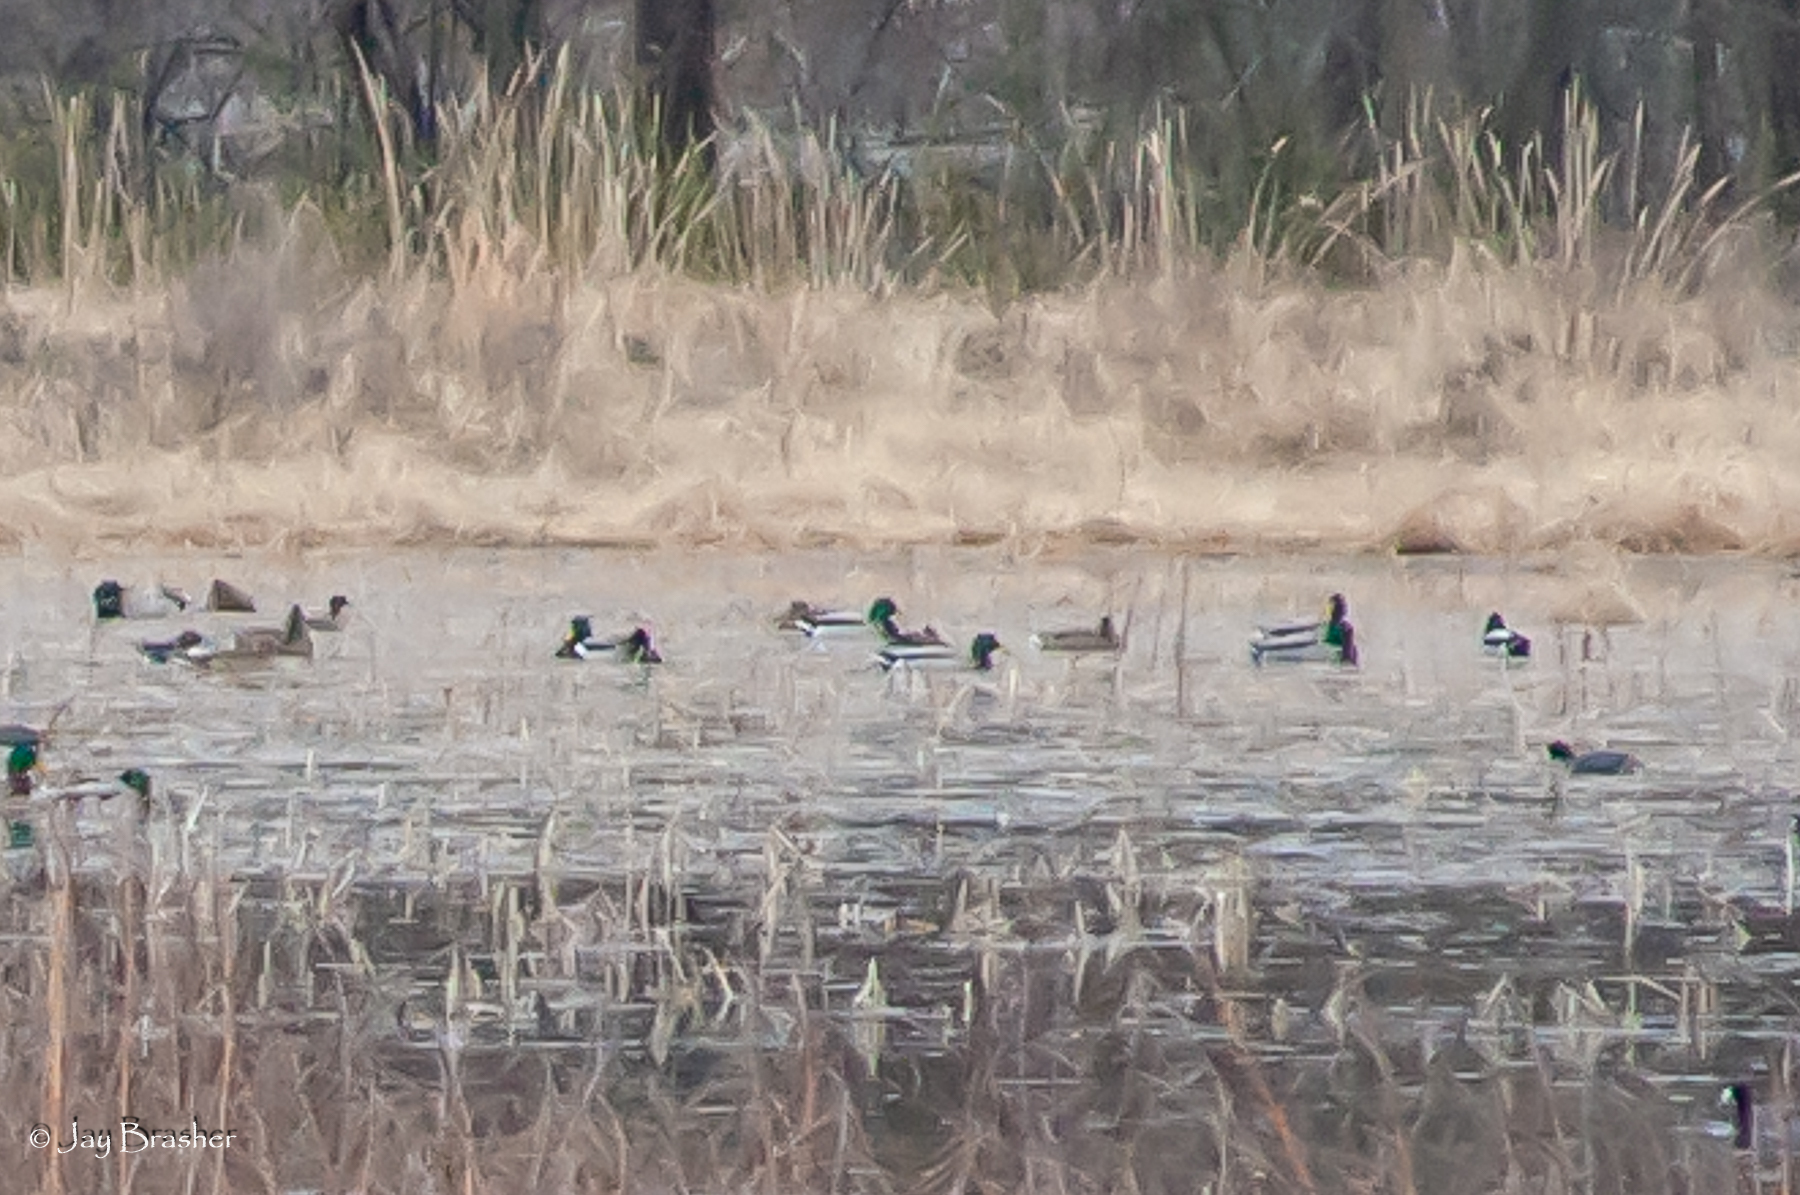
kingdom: Animalia
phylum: Chordata
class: Aves
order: Anseriformes
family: Anatidae
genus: Anas
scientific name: Anas platyrhynchos
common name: Mallard
